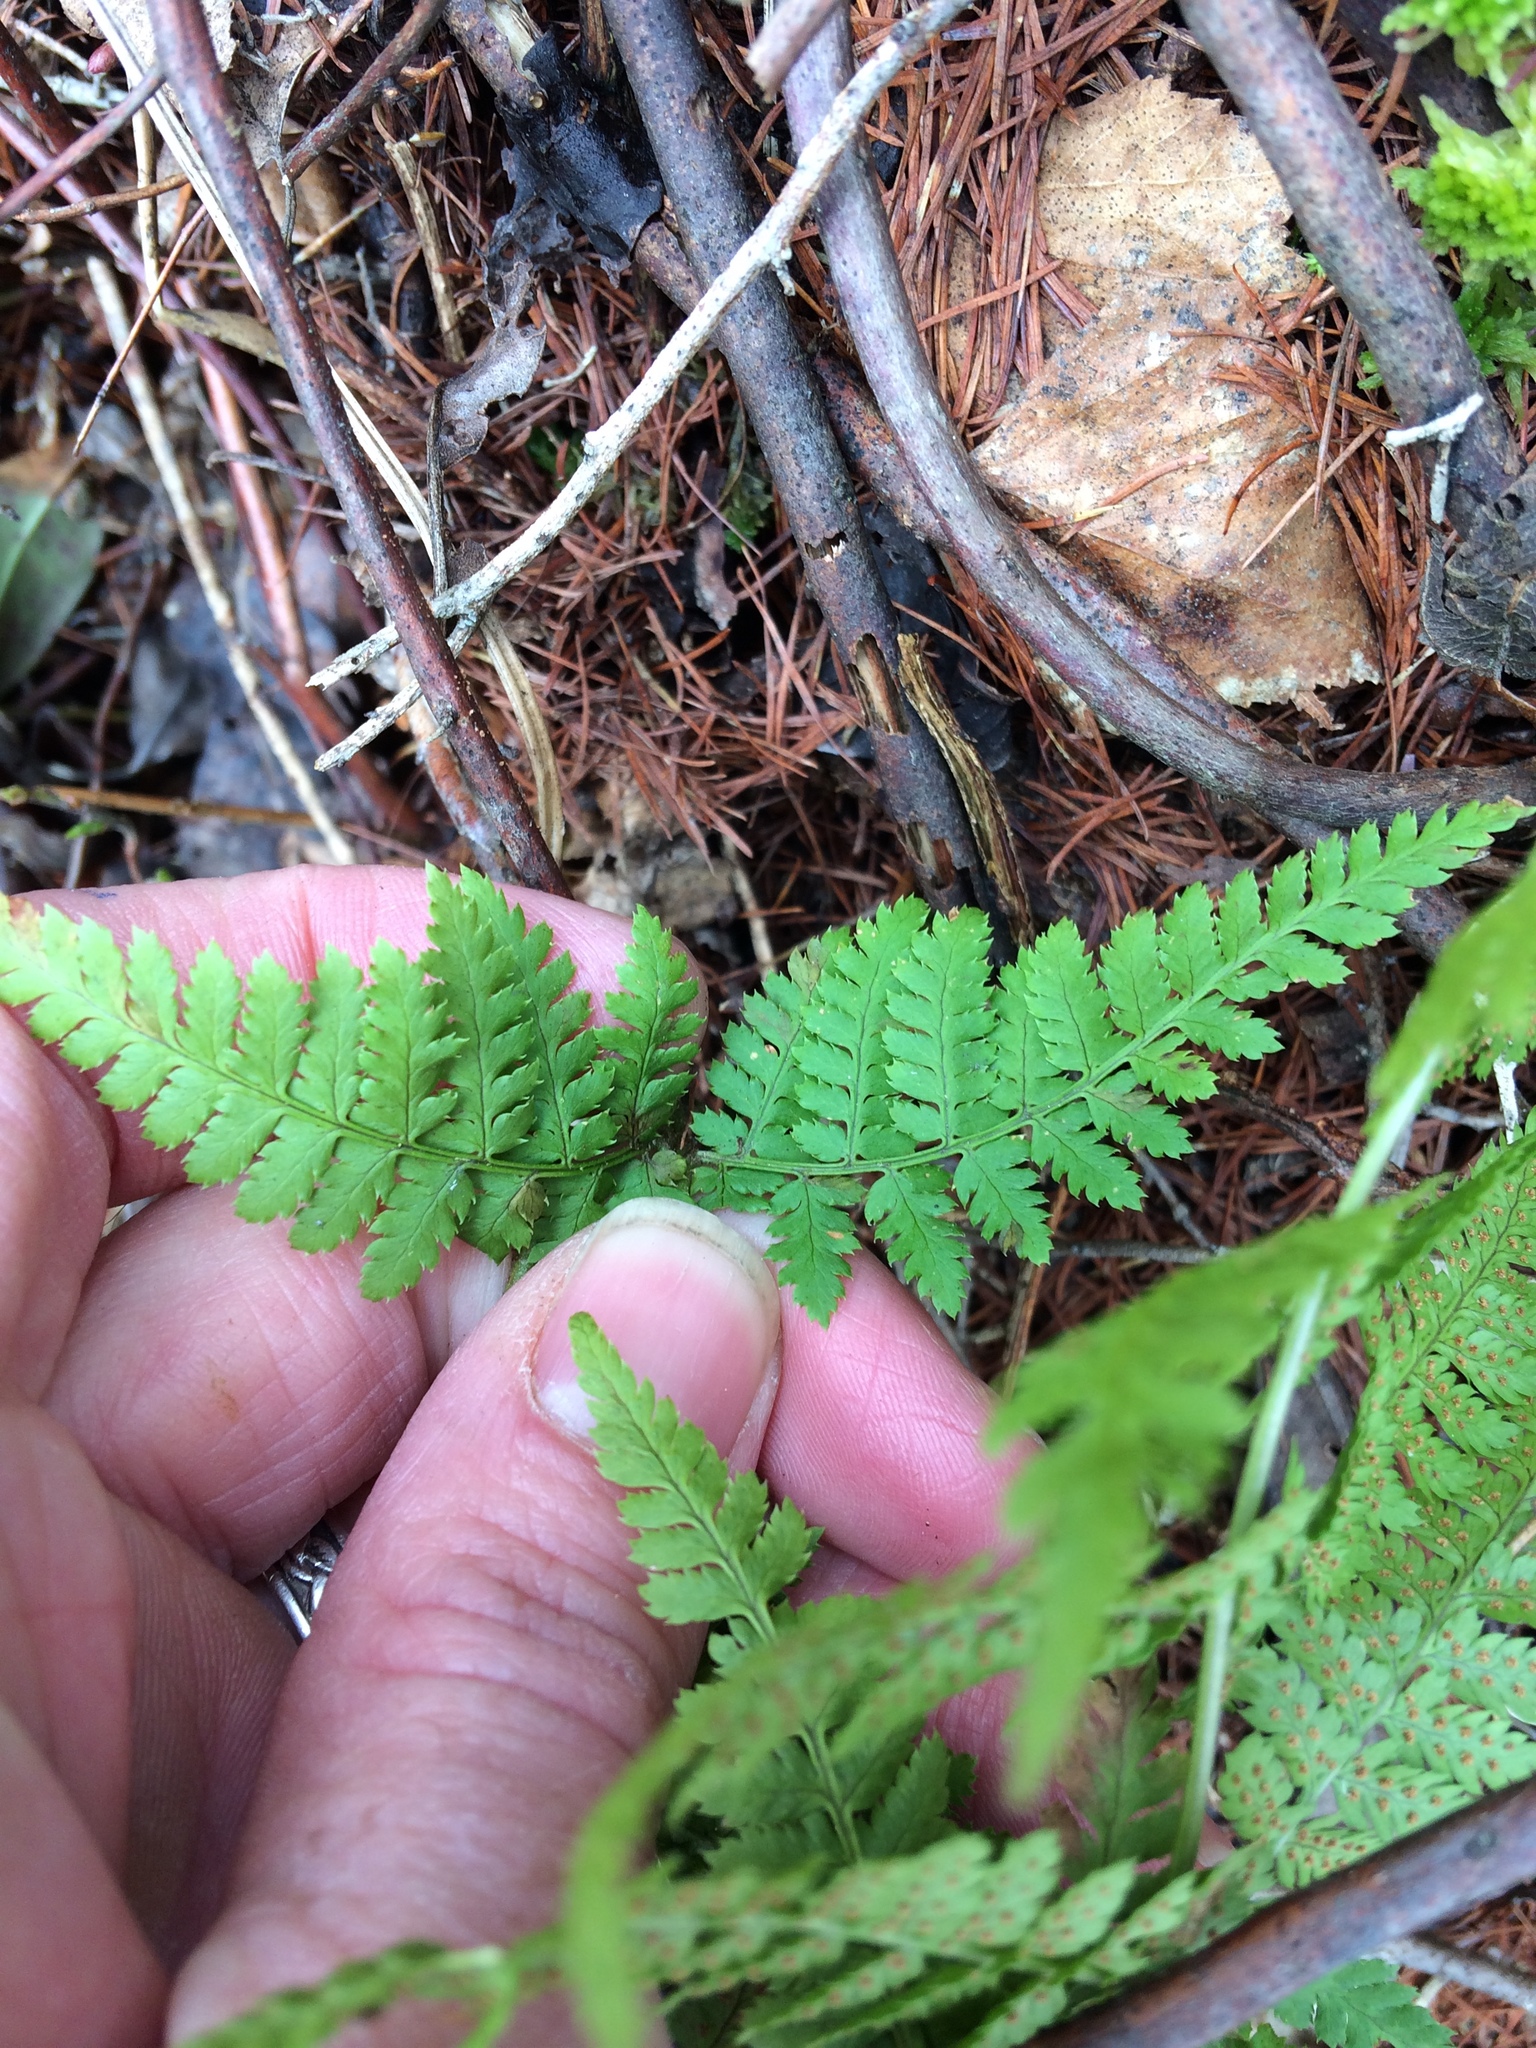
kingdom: Plantae
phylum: Tracheophyta
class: Polypodiopsida
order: Polypodiales
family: Dryopteridaceae
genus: Dryopteris
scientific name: Dryopteris intermedia
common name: Evergreen wood fern
